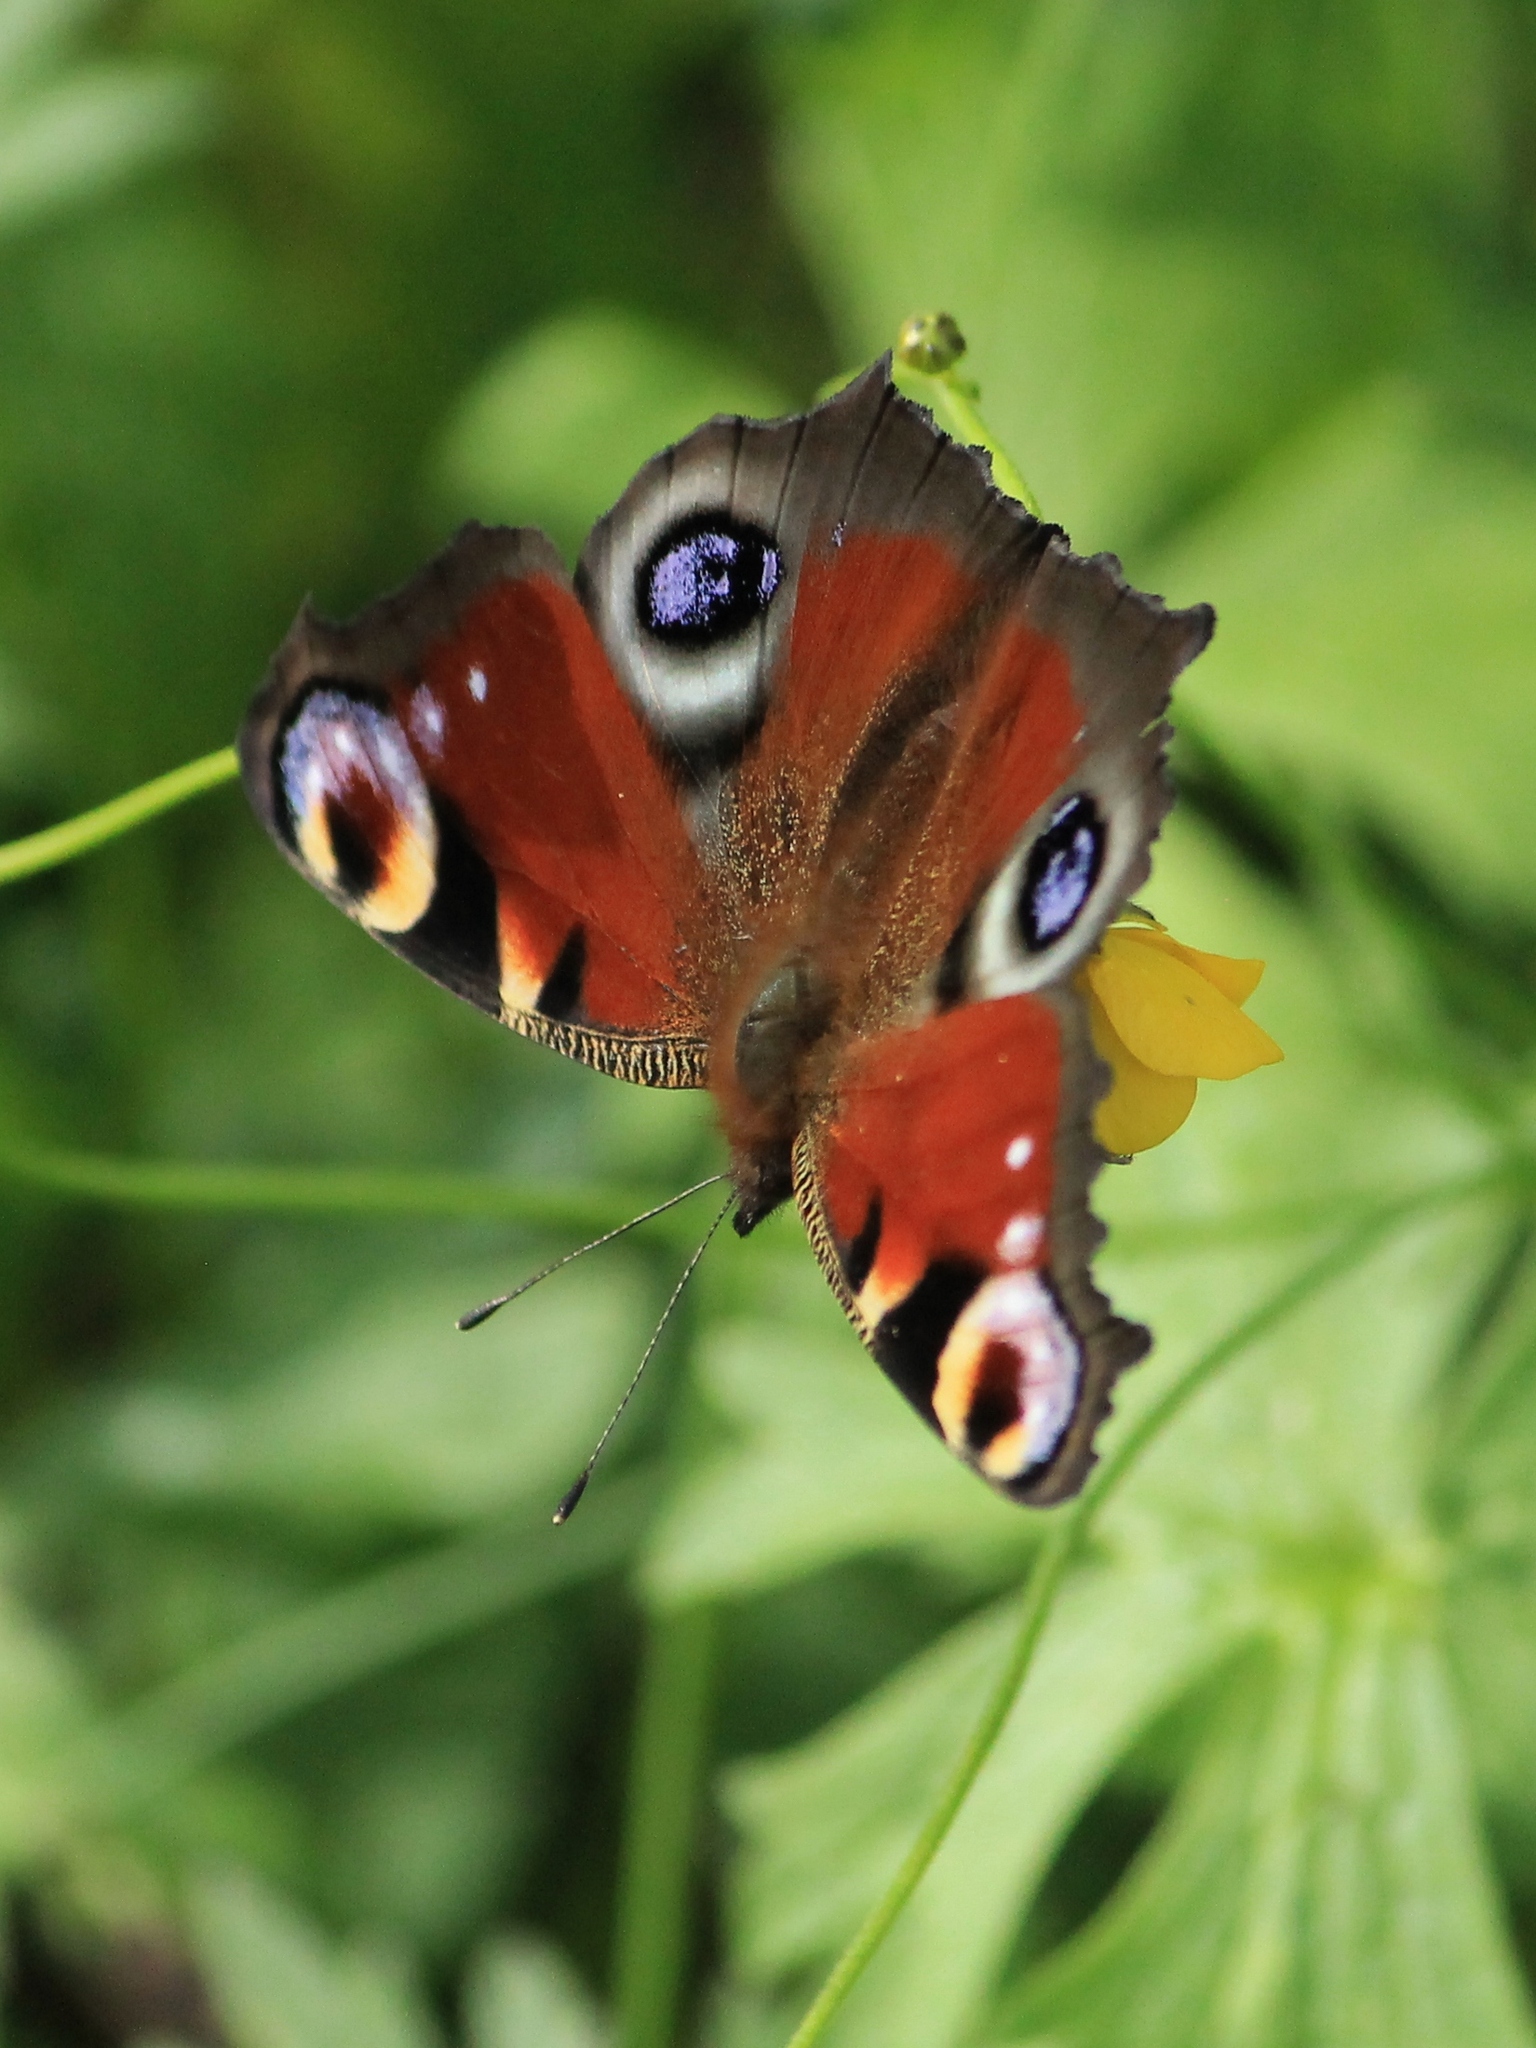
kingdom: Animalia
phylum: Arthropoda
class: Insecta
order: Lepidoptera
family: Nymphalidae
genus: Aglais
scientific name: Aglais io
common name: Peacock
